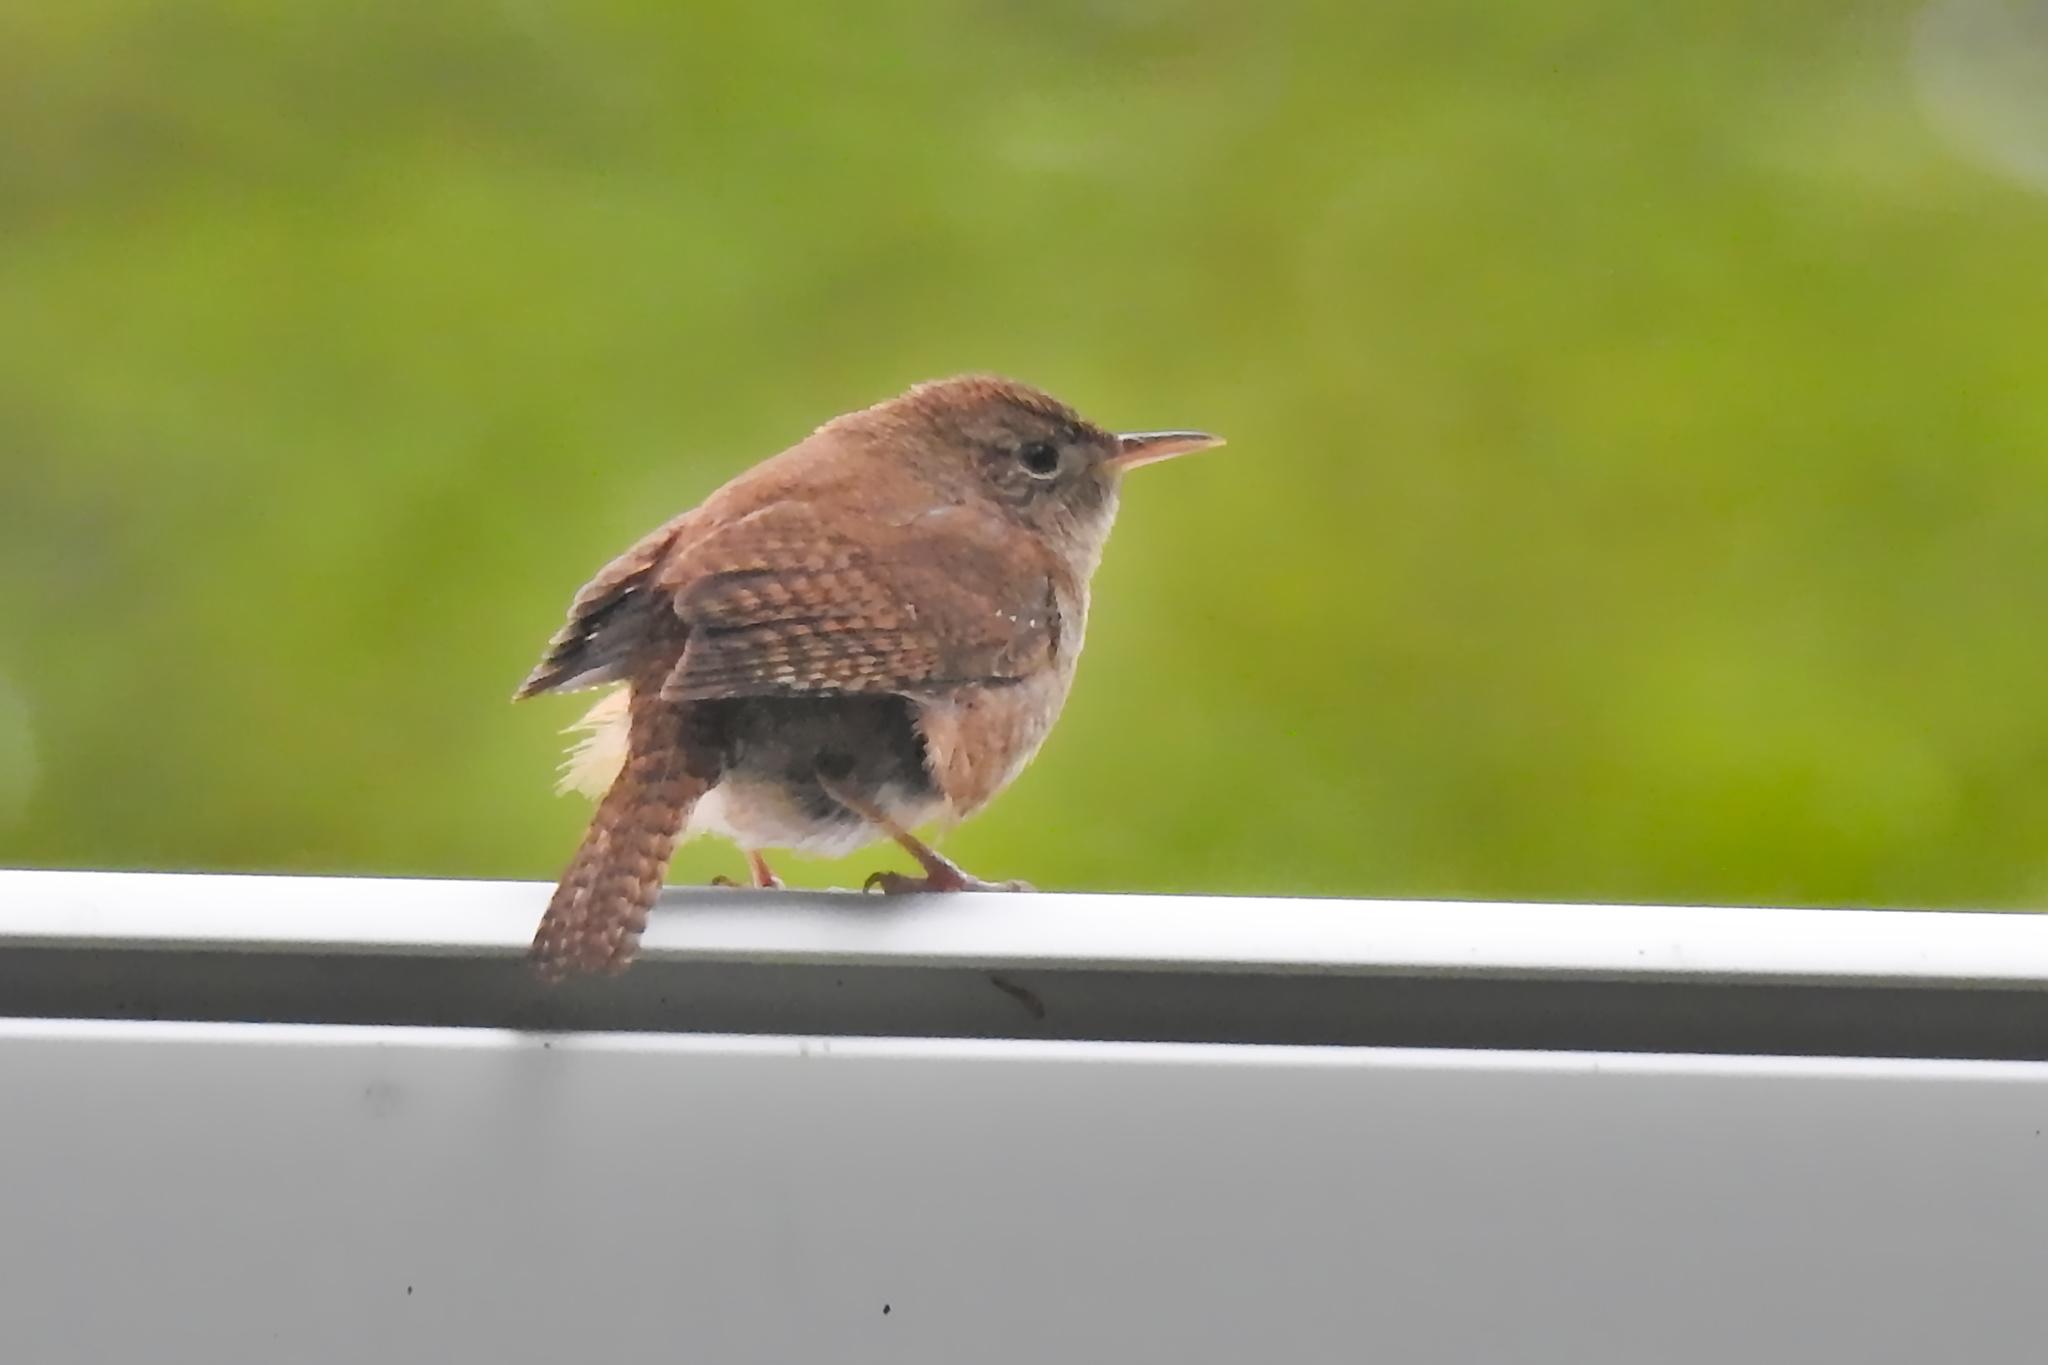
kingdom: Animalia
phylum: Chordata
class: Aves
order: Passeriformes
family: Troglodytidae
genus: Troglodytes
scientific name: Troglodytes aedon
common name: House wren
